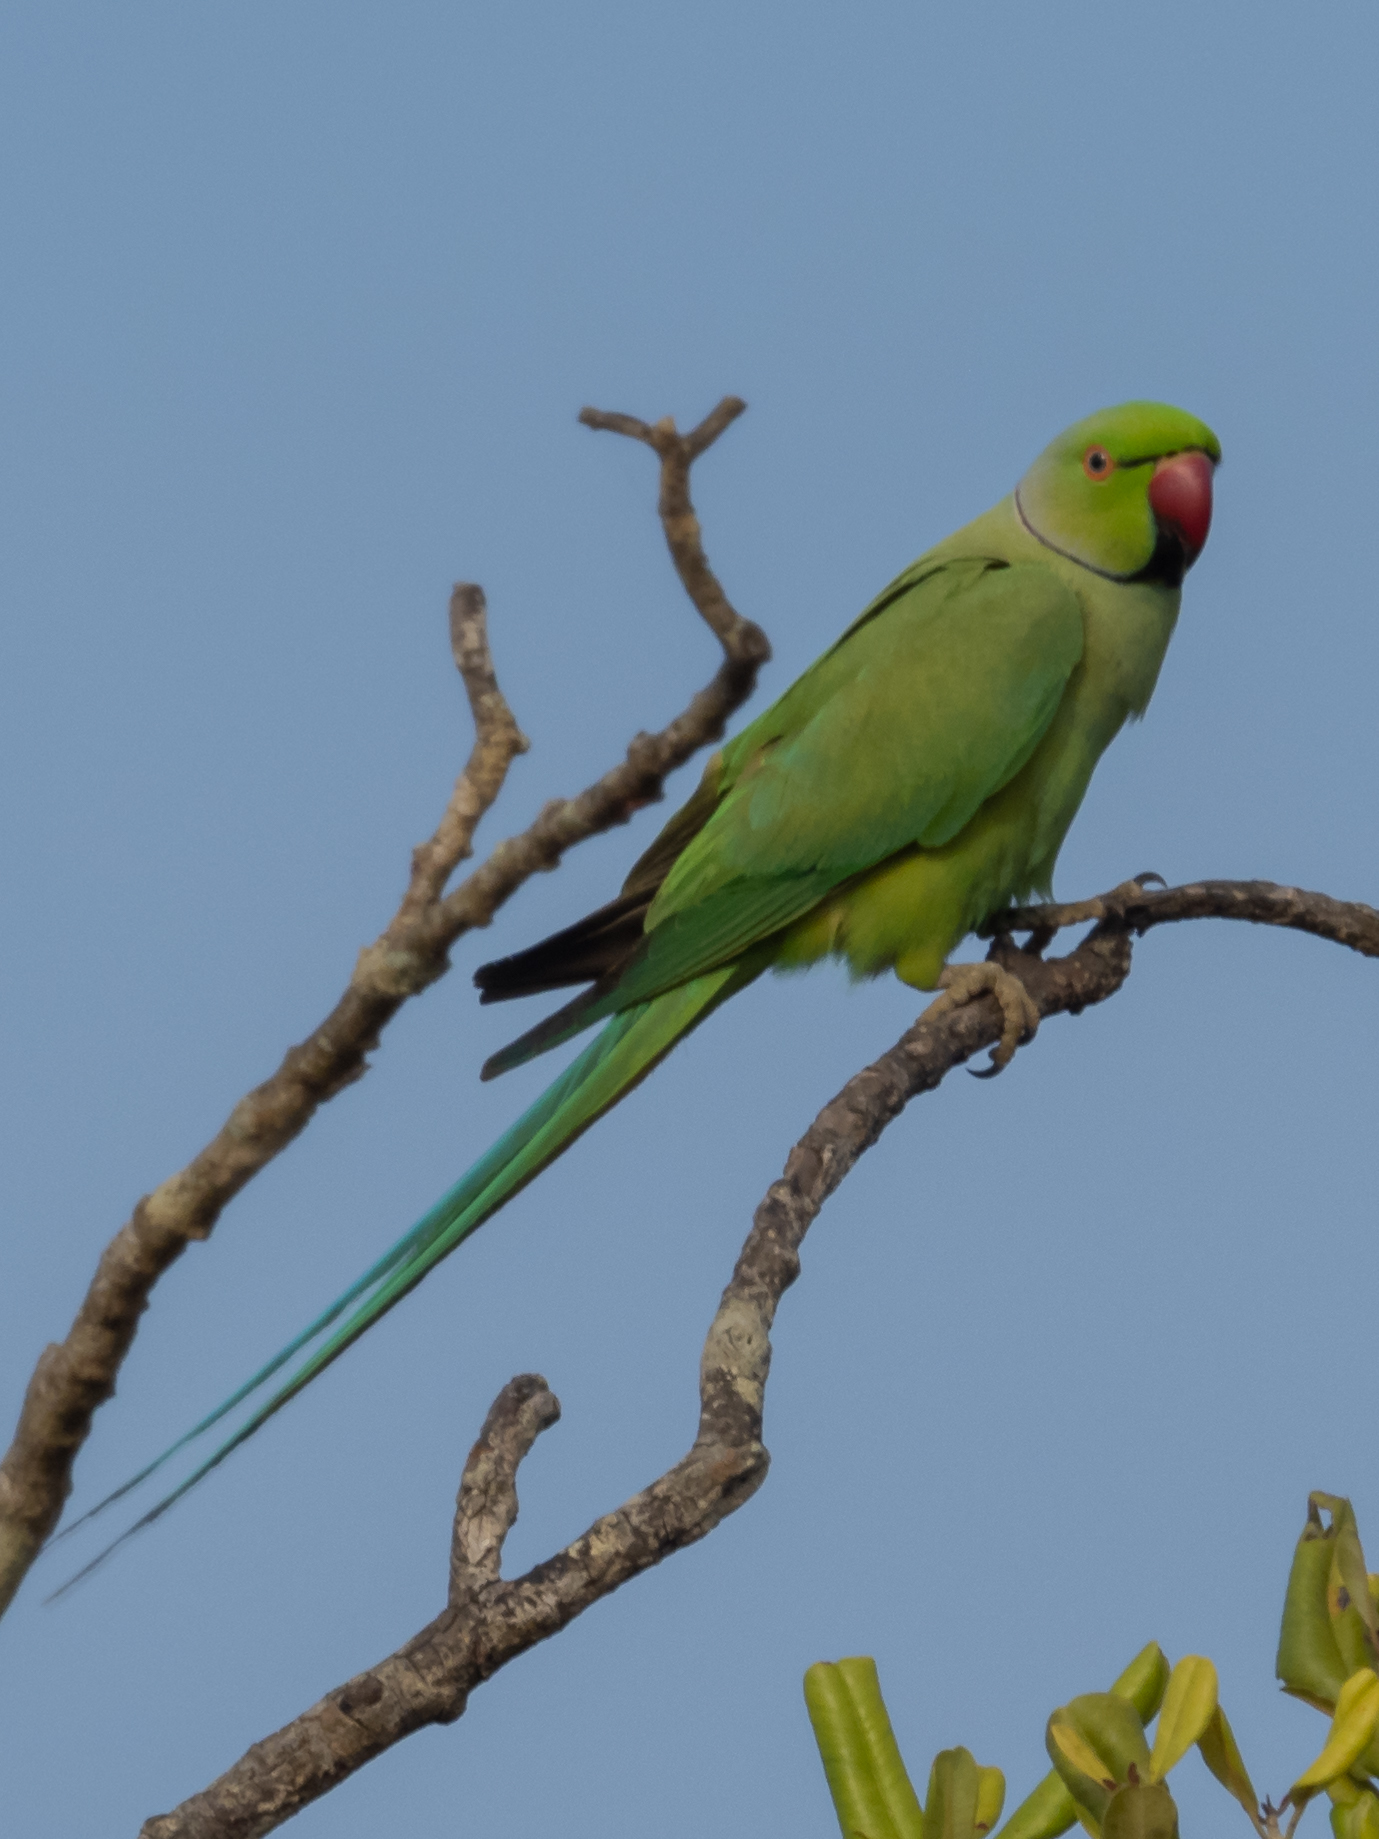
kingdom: Animalia
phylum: Chordata
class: Aves
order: Psittaciformes
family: Psittacidae
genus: Psittacula
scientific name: Psittacula krameri
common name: Rose-ringed parakeet
